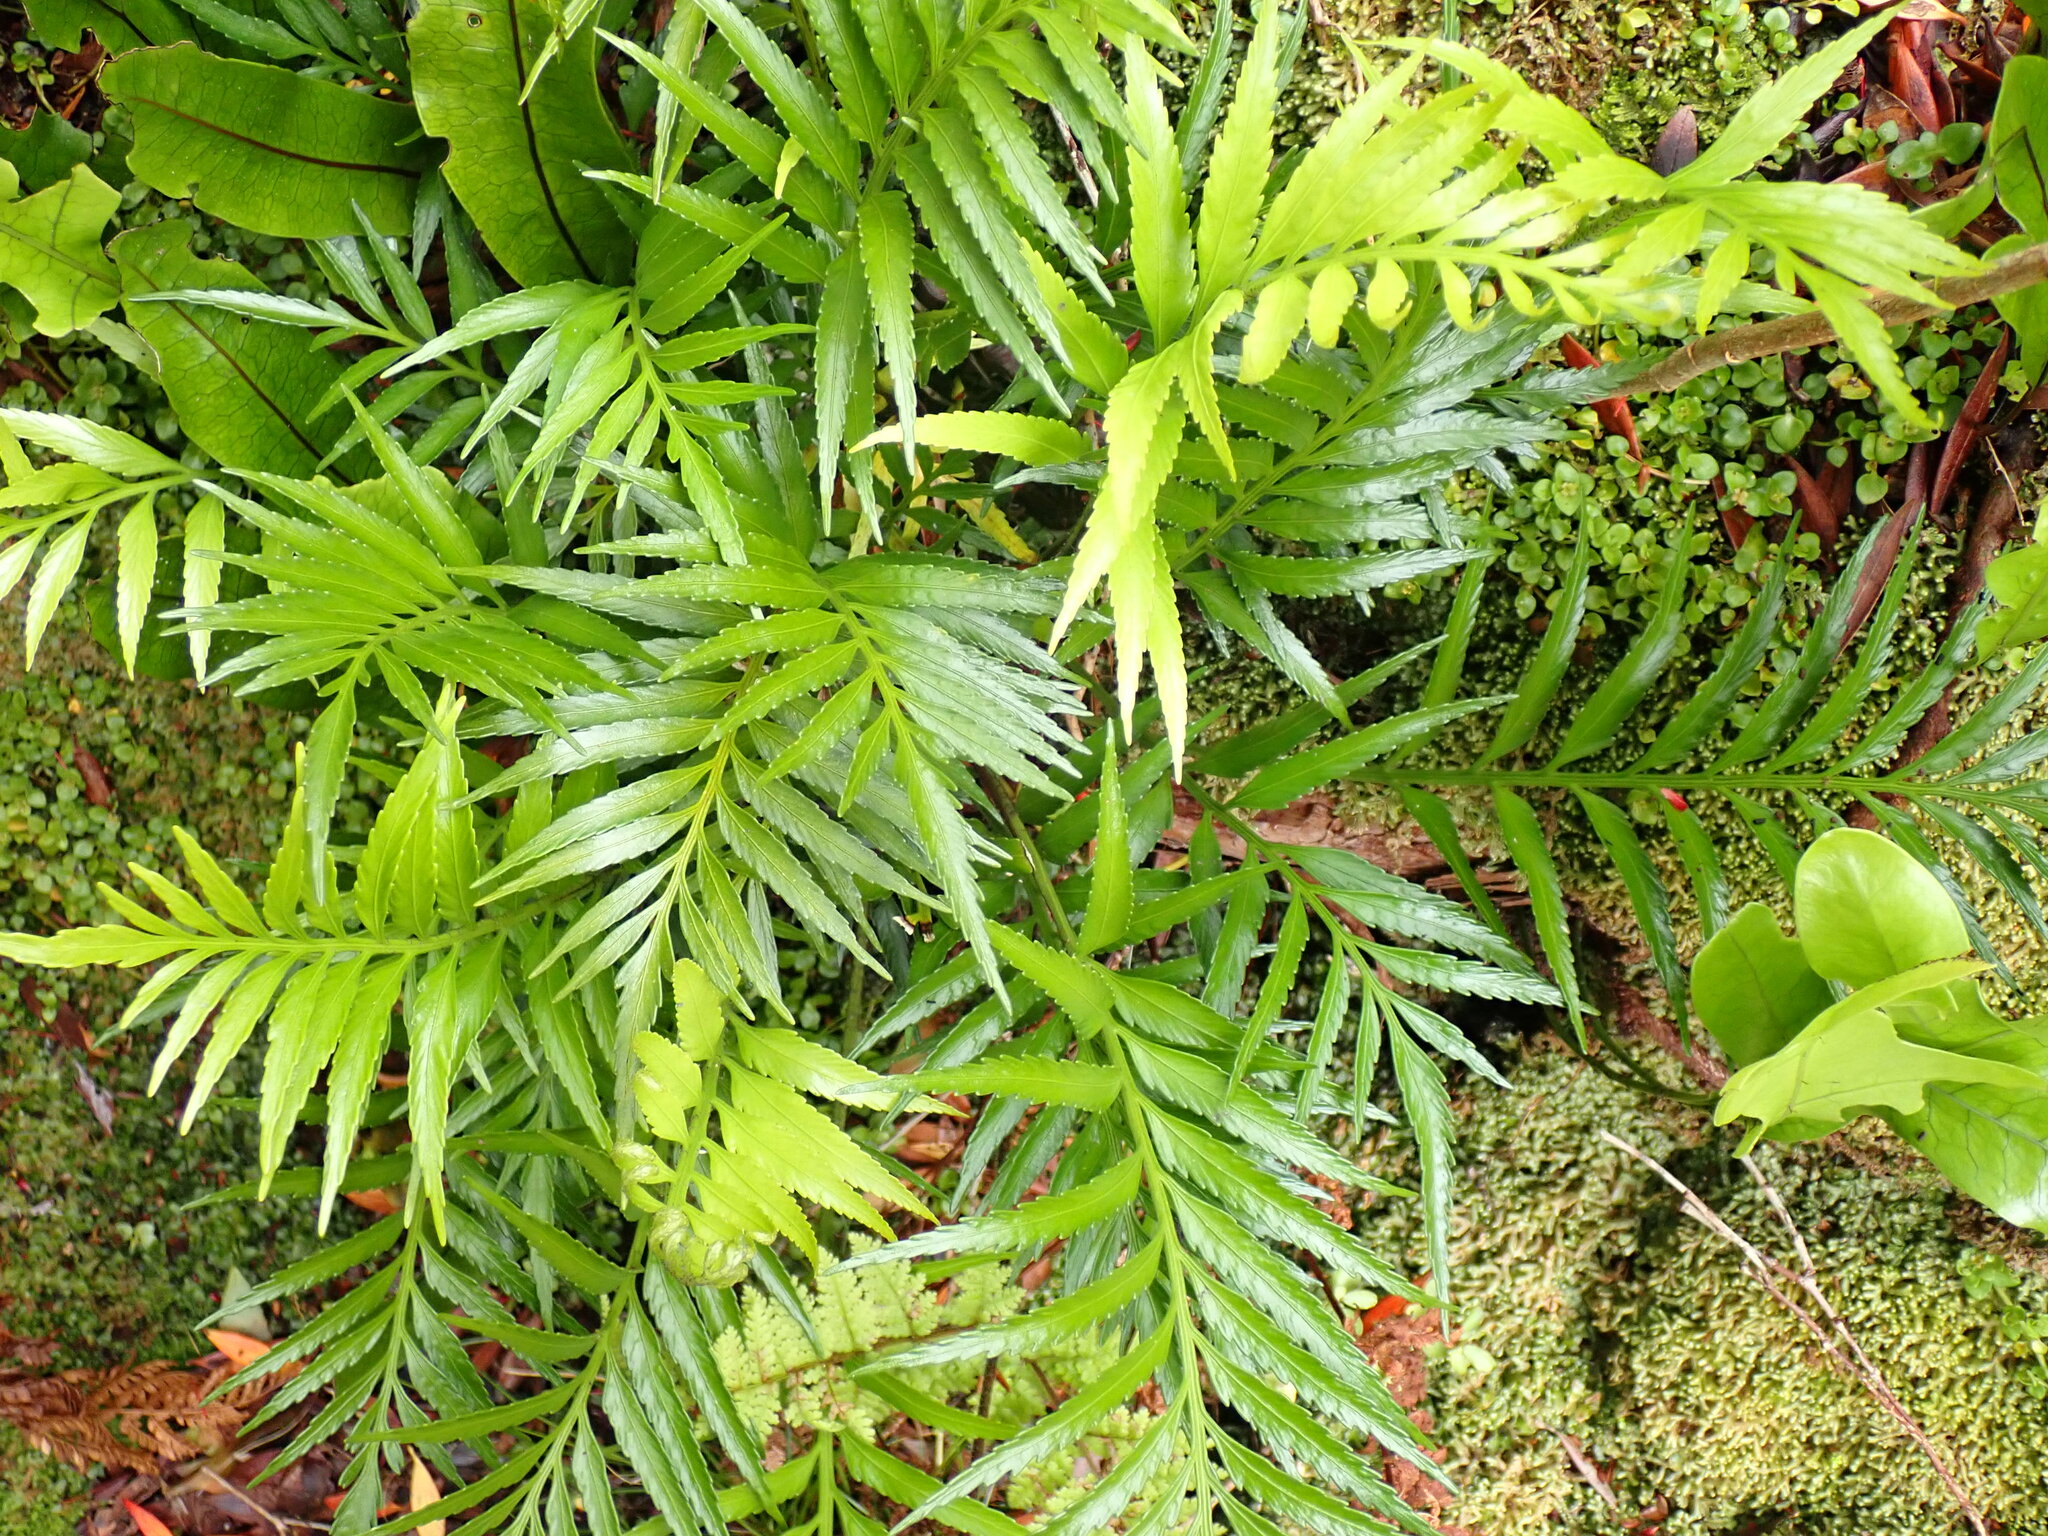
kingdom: Plantae
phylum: Tracheophyta
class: Polypodiopsida
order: Polypodiales
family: Aspleniaceae
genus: Asplenium
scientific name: Asplenium scleroprium
